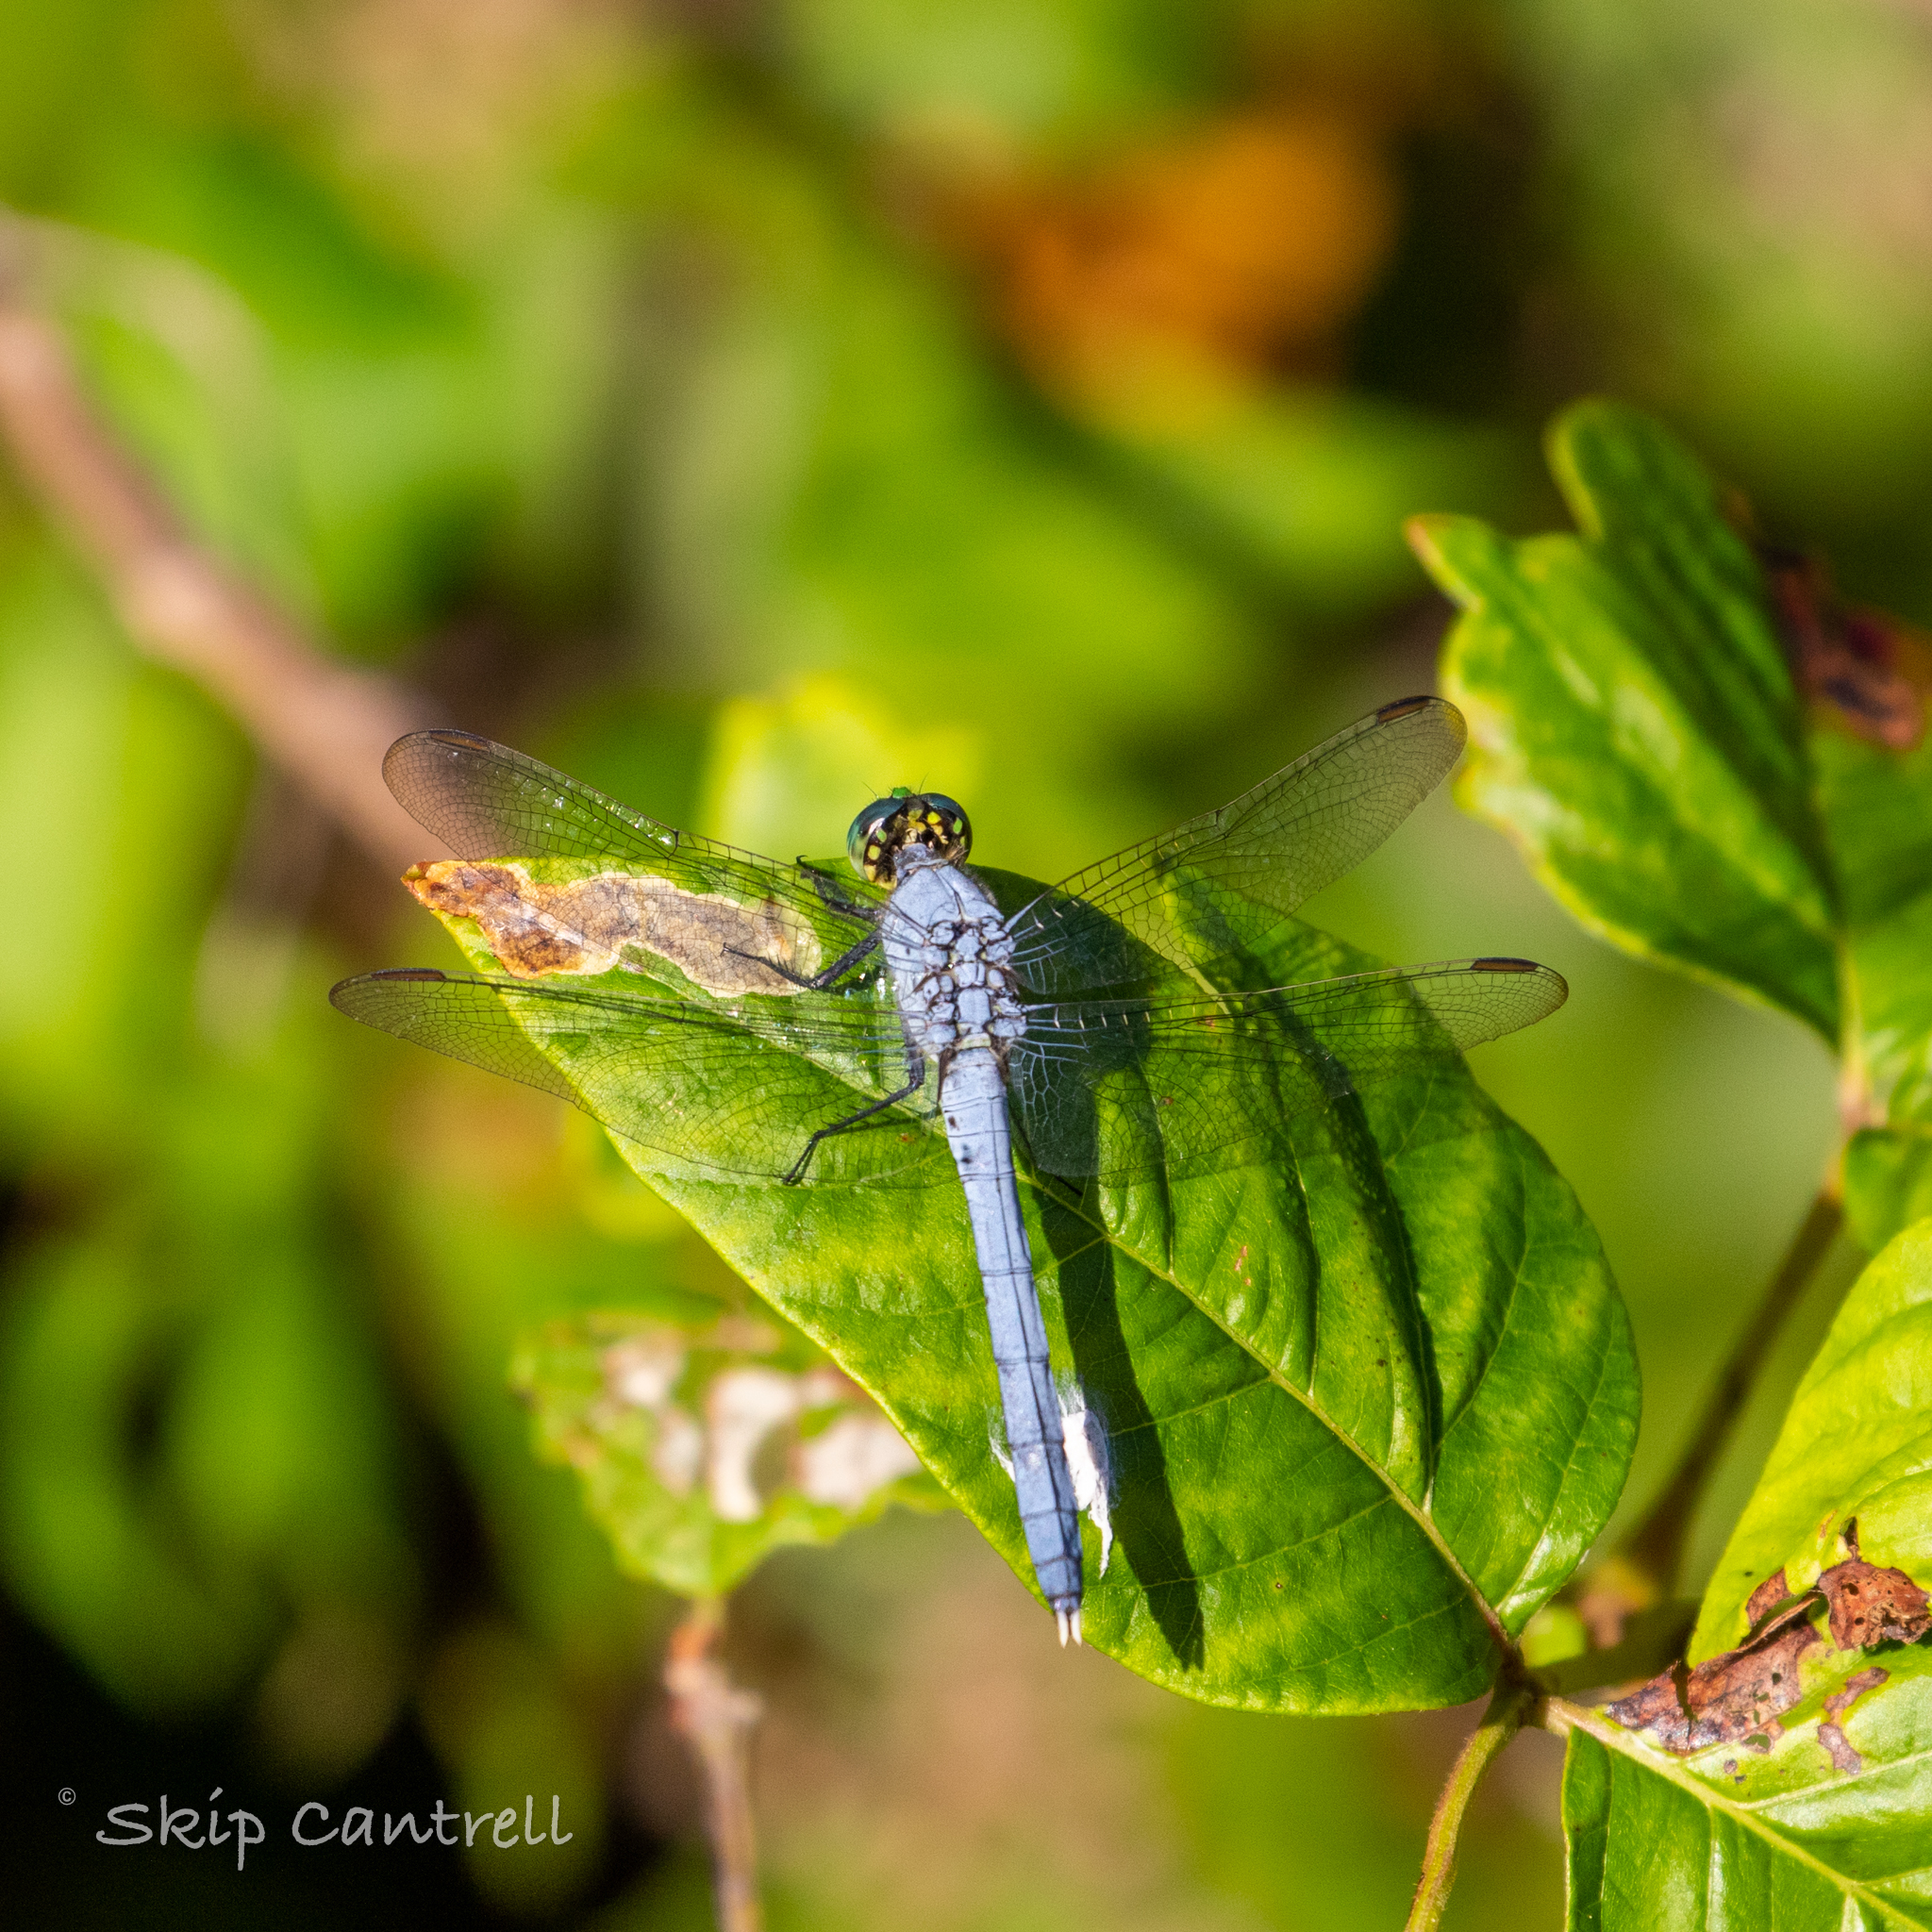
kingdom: Animalia
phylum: Arthropoda
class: Insecta
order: Odonata
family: Libellulidae
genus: Erythemis
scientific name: Erythemis simplicicollis
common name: Eastern pondhawk
